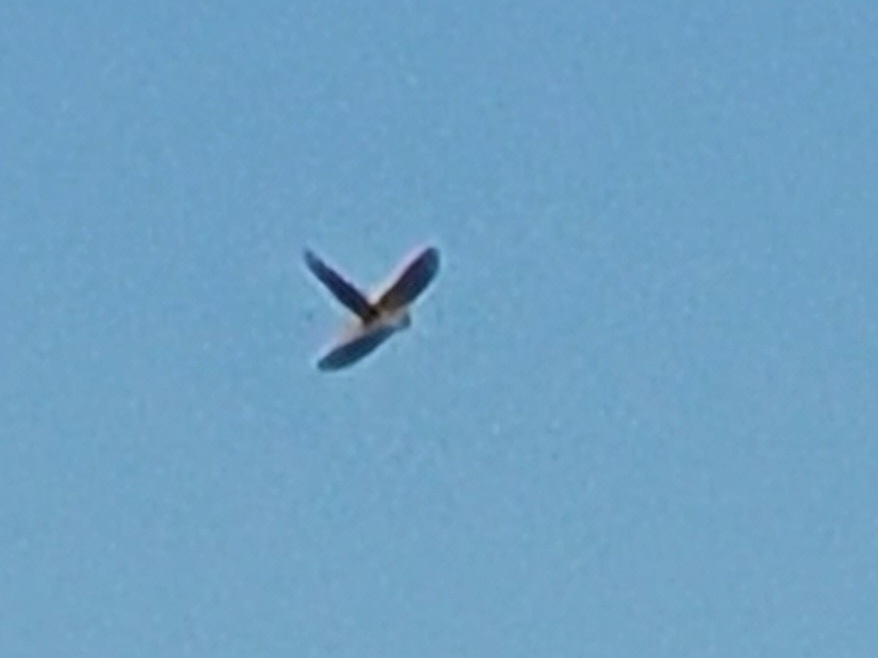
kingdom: Animalia
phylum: Chordata
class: Aves
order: Falconiformes
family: Falconidae
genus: Falco
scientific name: Falco tinnunculus
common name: Common kestrel
